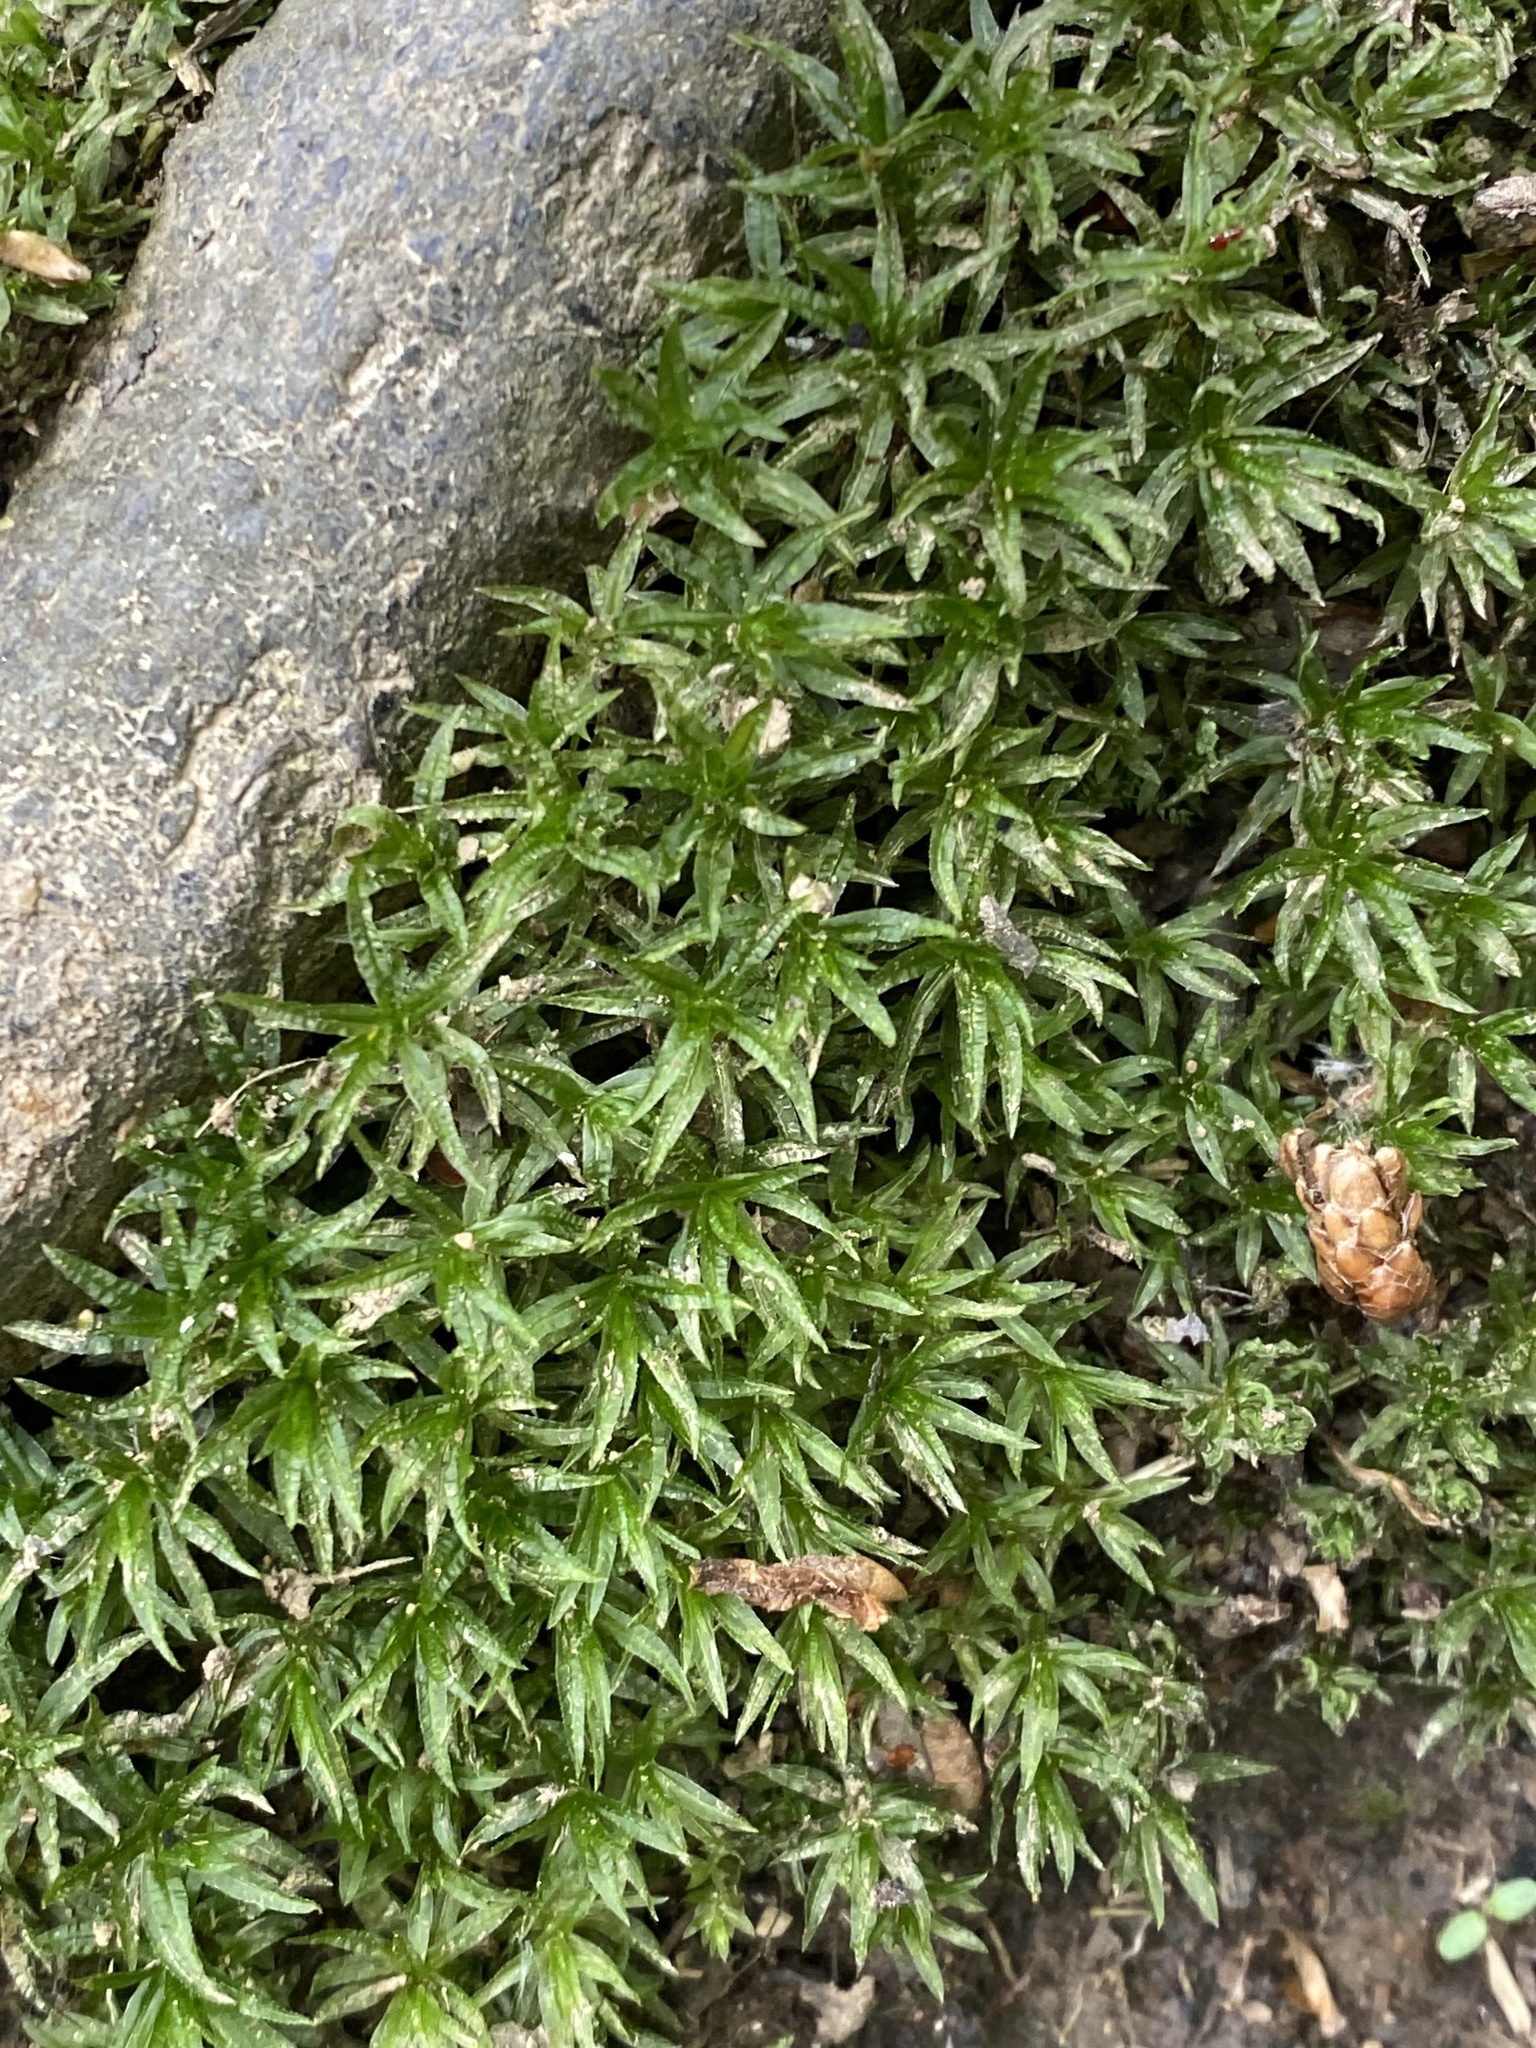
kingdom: Plantae
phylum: Bryophyta
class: Polytrichopsida
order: Polytrichales
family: Polytrichaceae
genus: Atrichum
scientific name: Atrichum undulatum
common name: Common smoothcap
